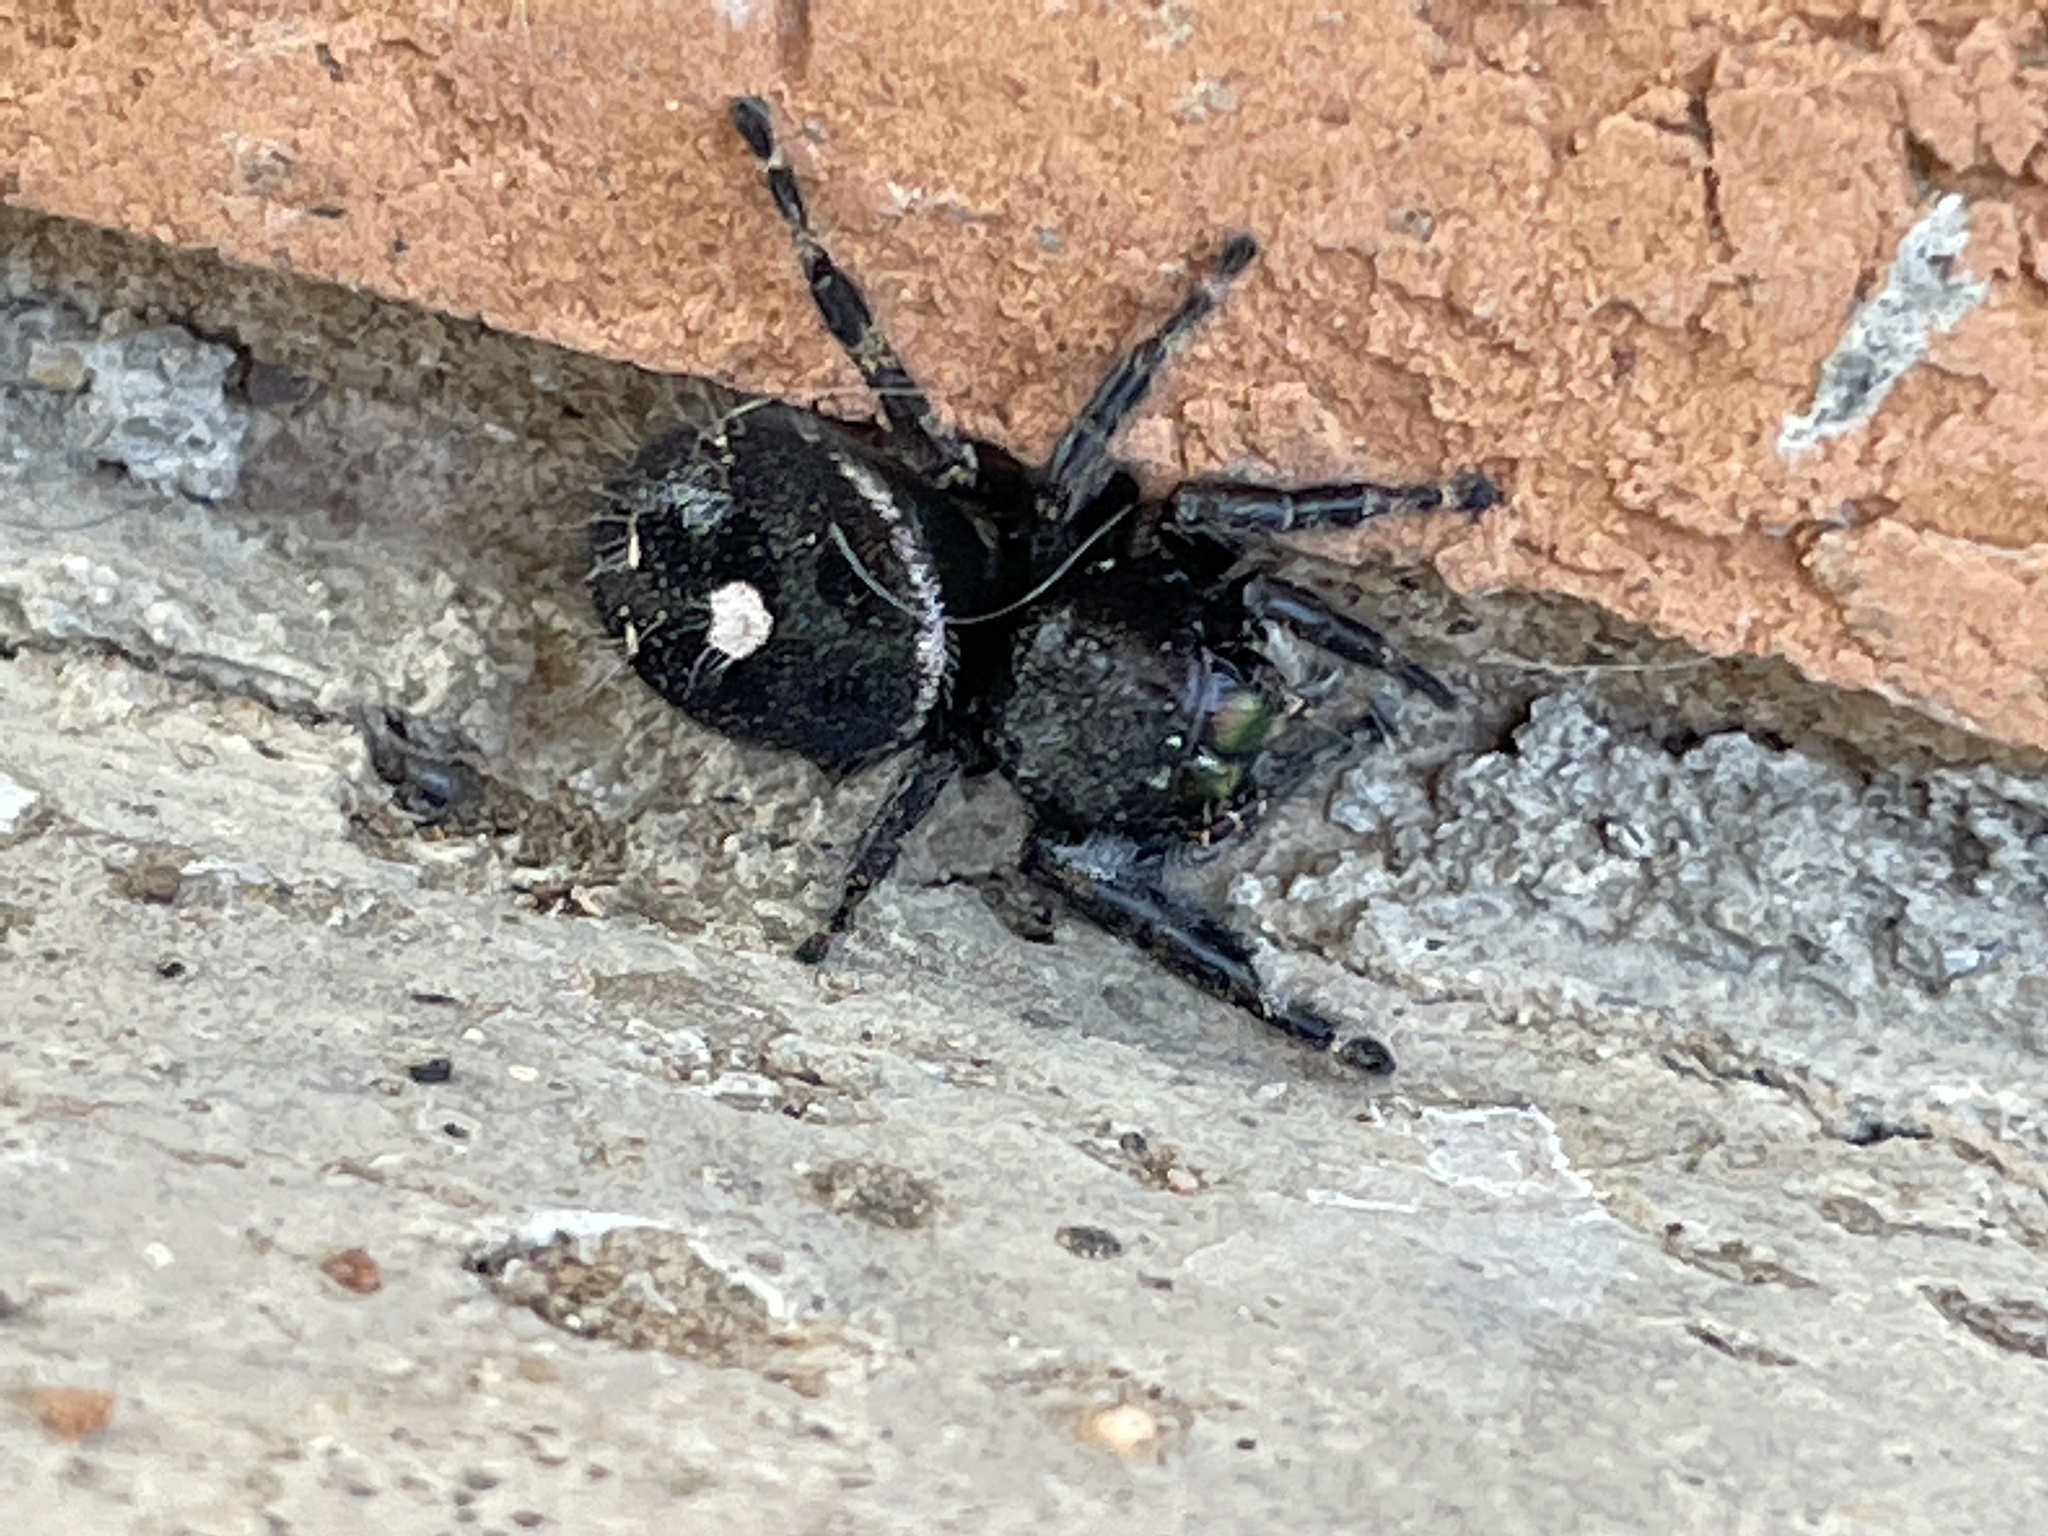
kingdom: Animalia
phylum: Arthropoda
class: Arachnida
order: Araneae
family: Salticidae
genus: Phidippus
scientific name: Phidippus audax
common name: Bold jumper
